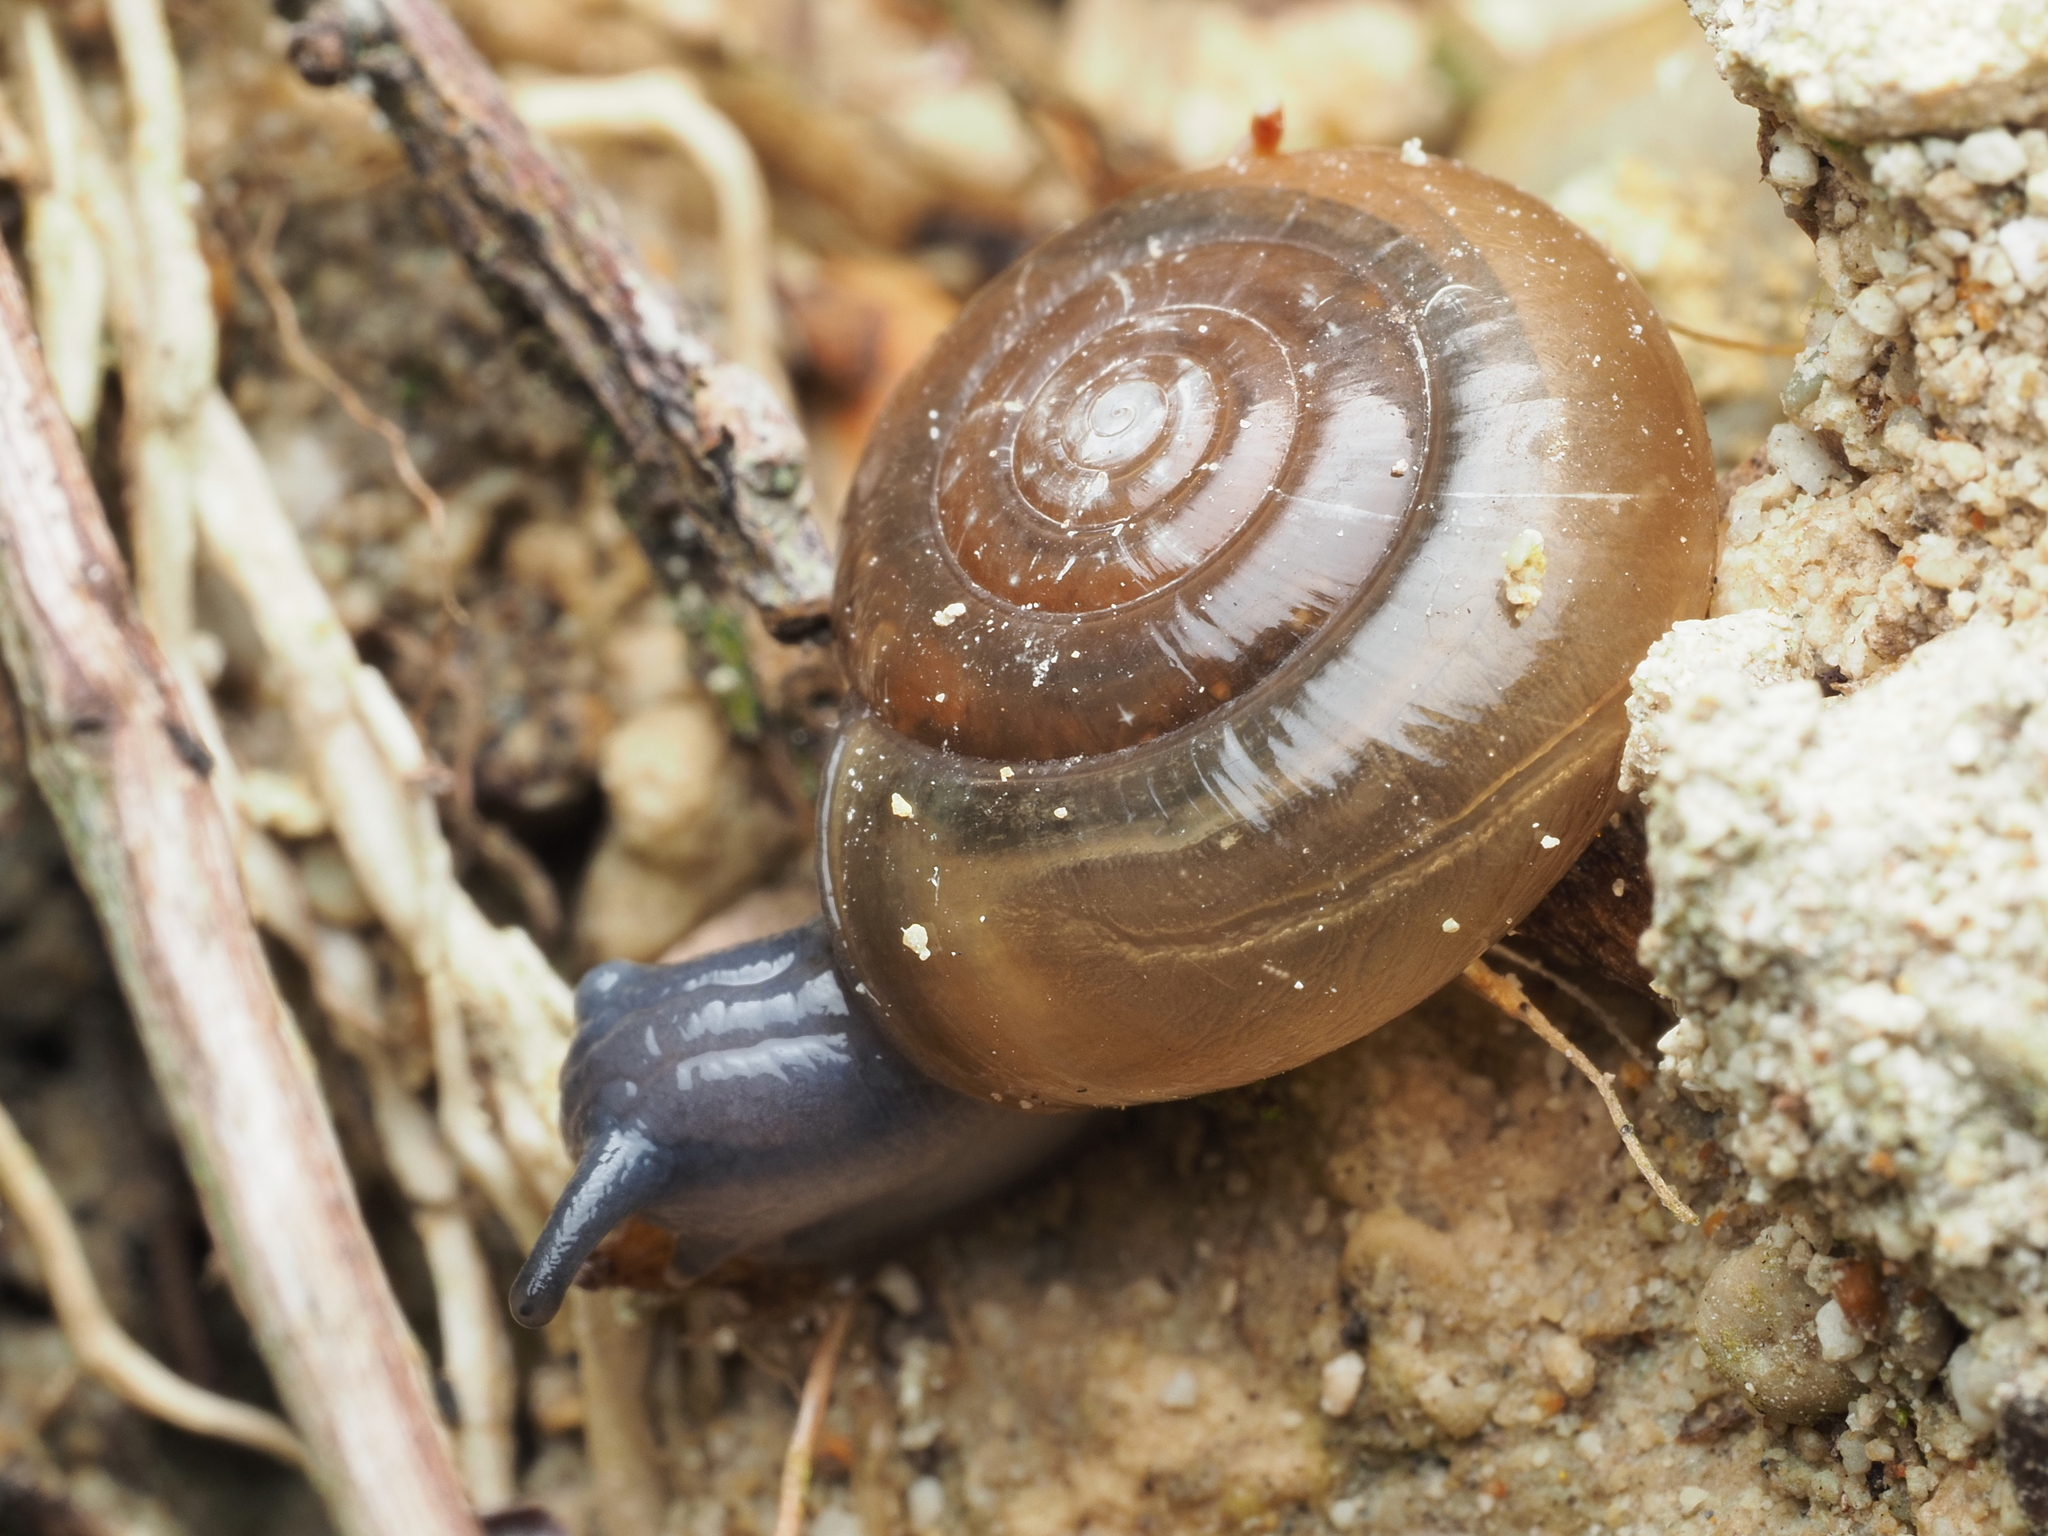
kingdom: Animalia
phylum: Mollusca
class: Gastropoda
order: Stylommatophora
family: Oxychilidae
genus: Oxychilus
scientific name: Oxychilus draparnaudi
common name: Draparnaud's glass snail
